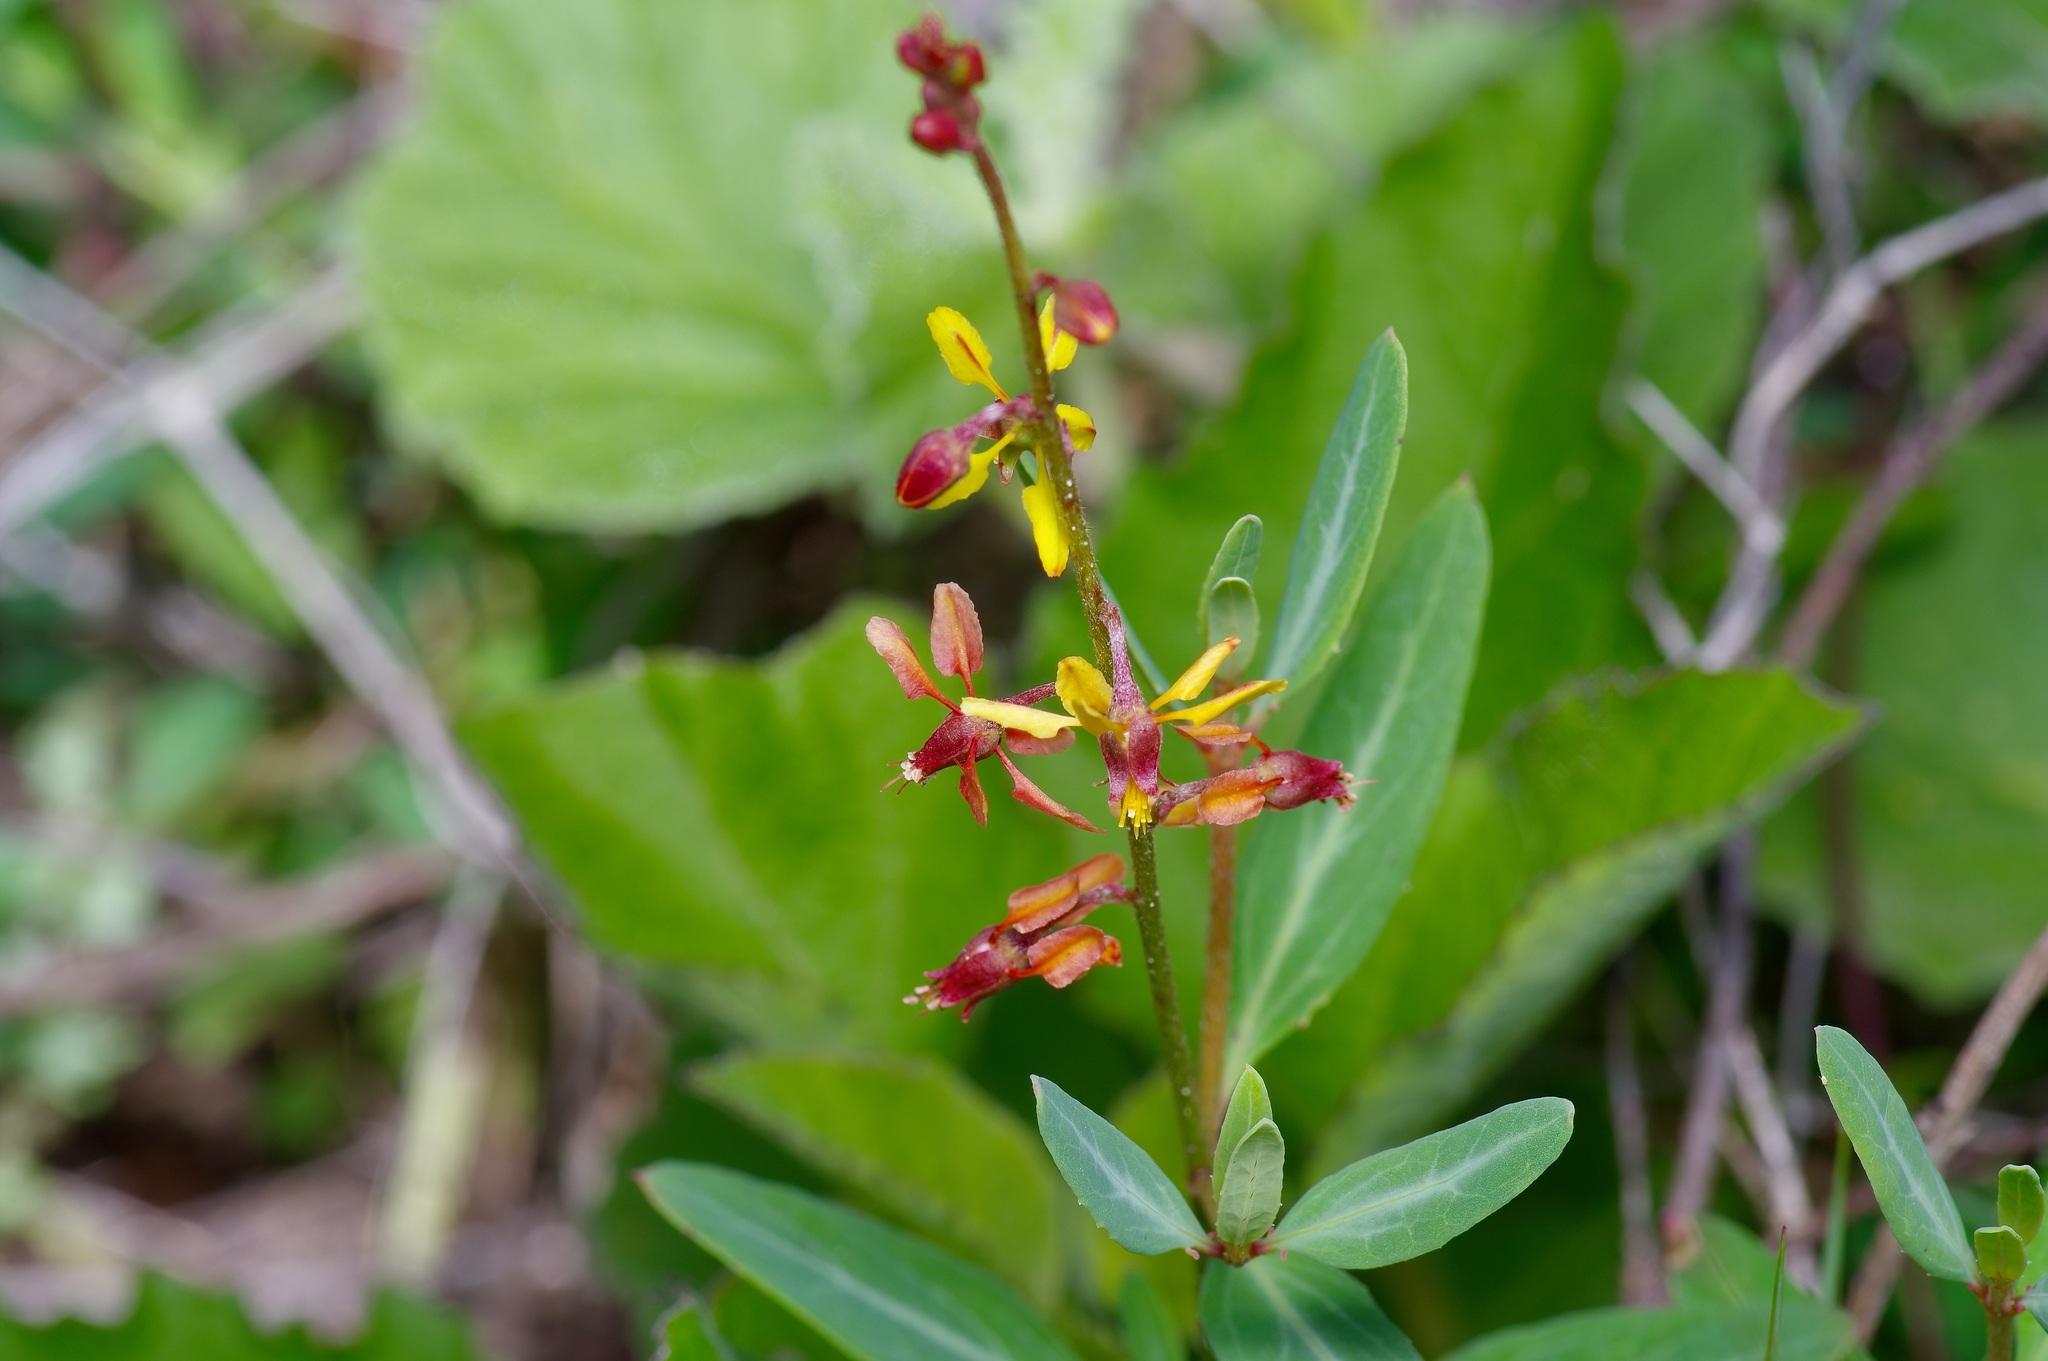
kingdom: Plantae
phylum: Tracheophyta
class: Magnoliopsida
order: Malpighiales
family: Malpighiaceae
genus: Galphimia
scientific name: Galphimia angustifolia
